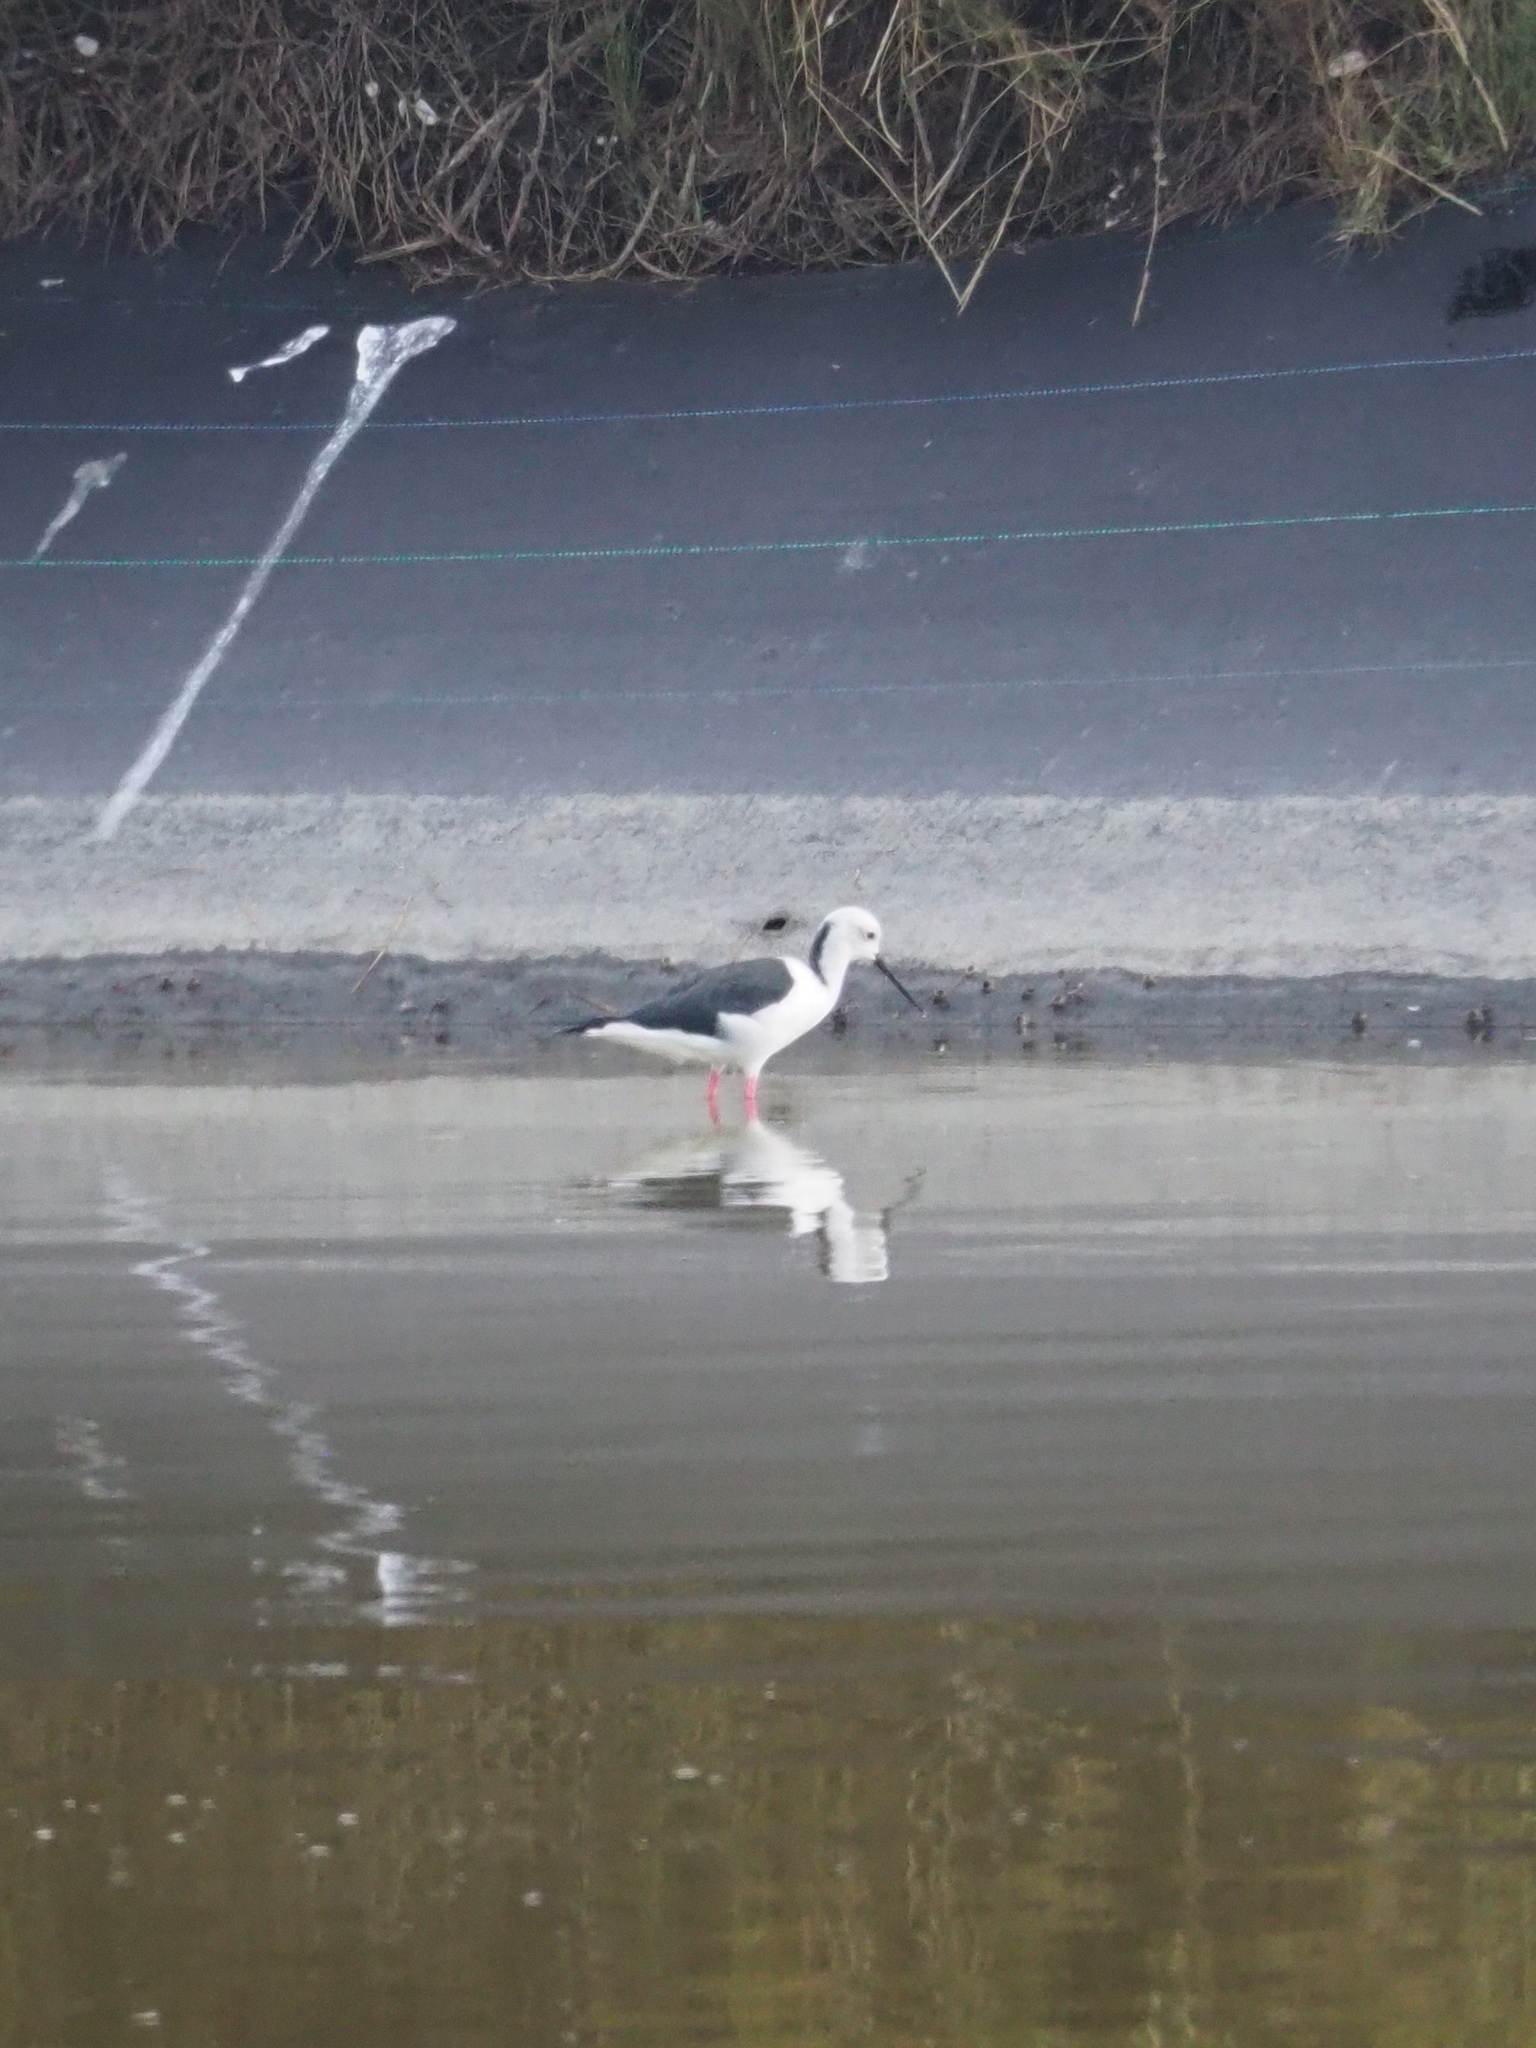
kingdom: Animalia
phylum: Chordata
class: Aves
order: Charadriiformes
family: Recurvirostridae
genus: Himantopus
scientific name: Himantopus himantopus
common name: Black-winged stilt
